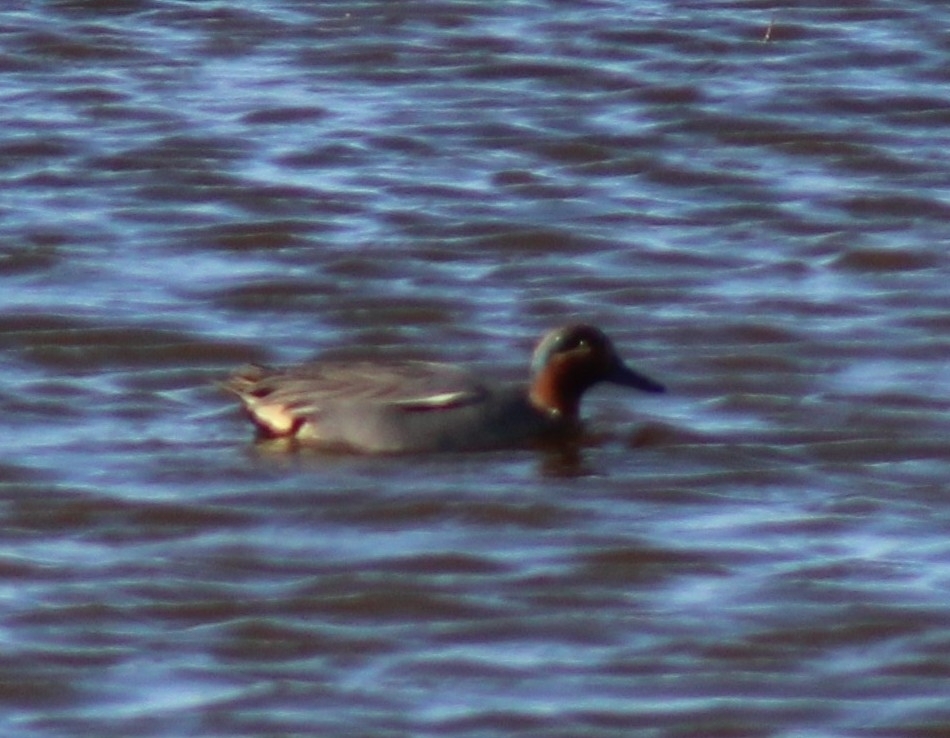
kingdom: Animalia
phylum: Chordata
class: Aves
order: Anseriformes
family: Anatidae
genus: Anas
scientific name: Anas crecca
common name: Eurasian teal
